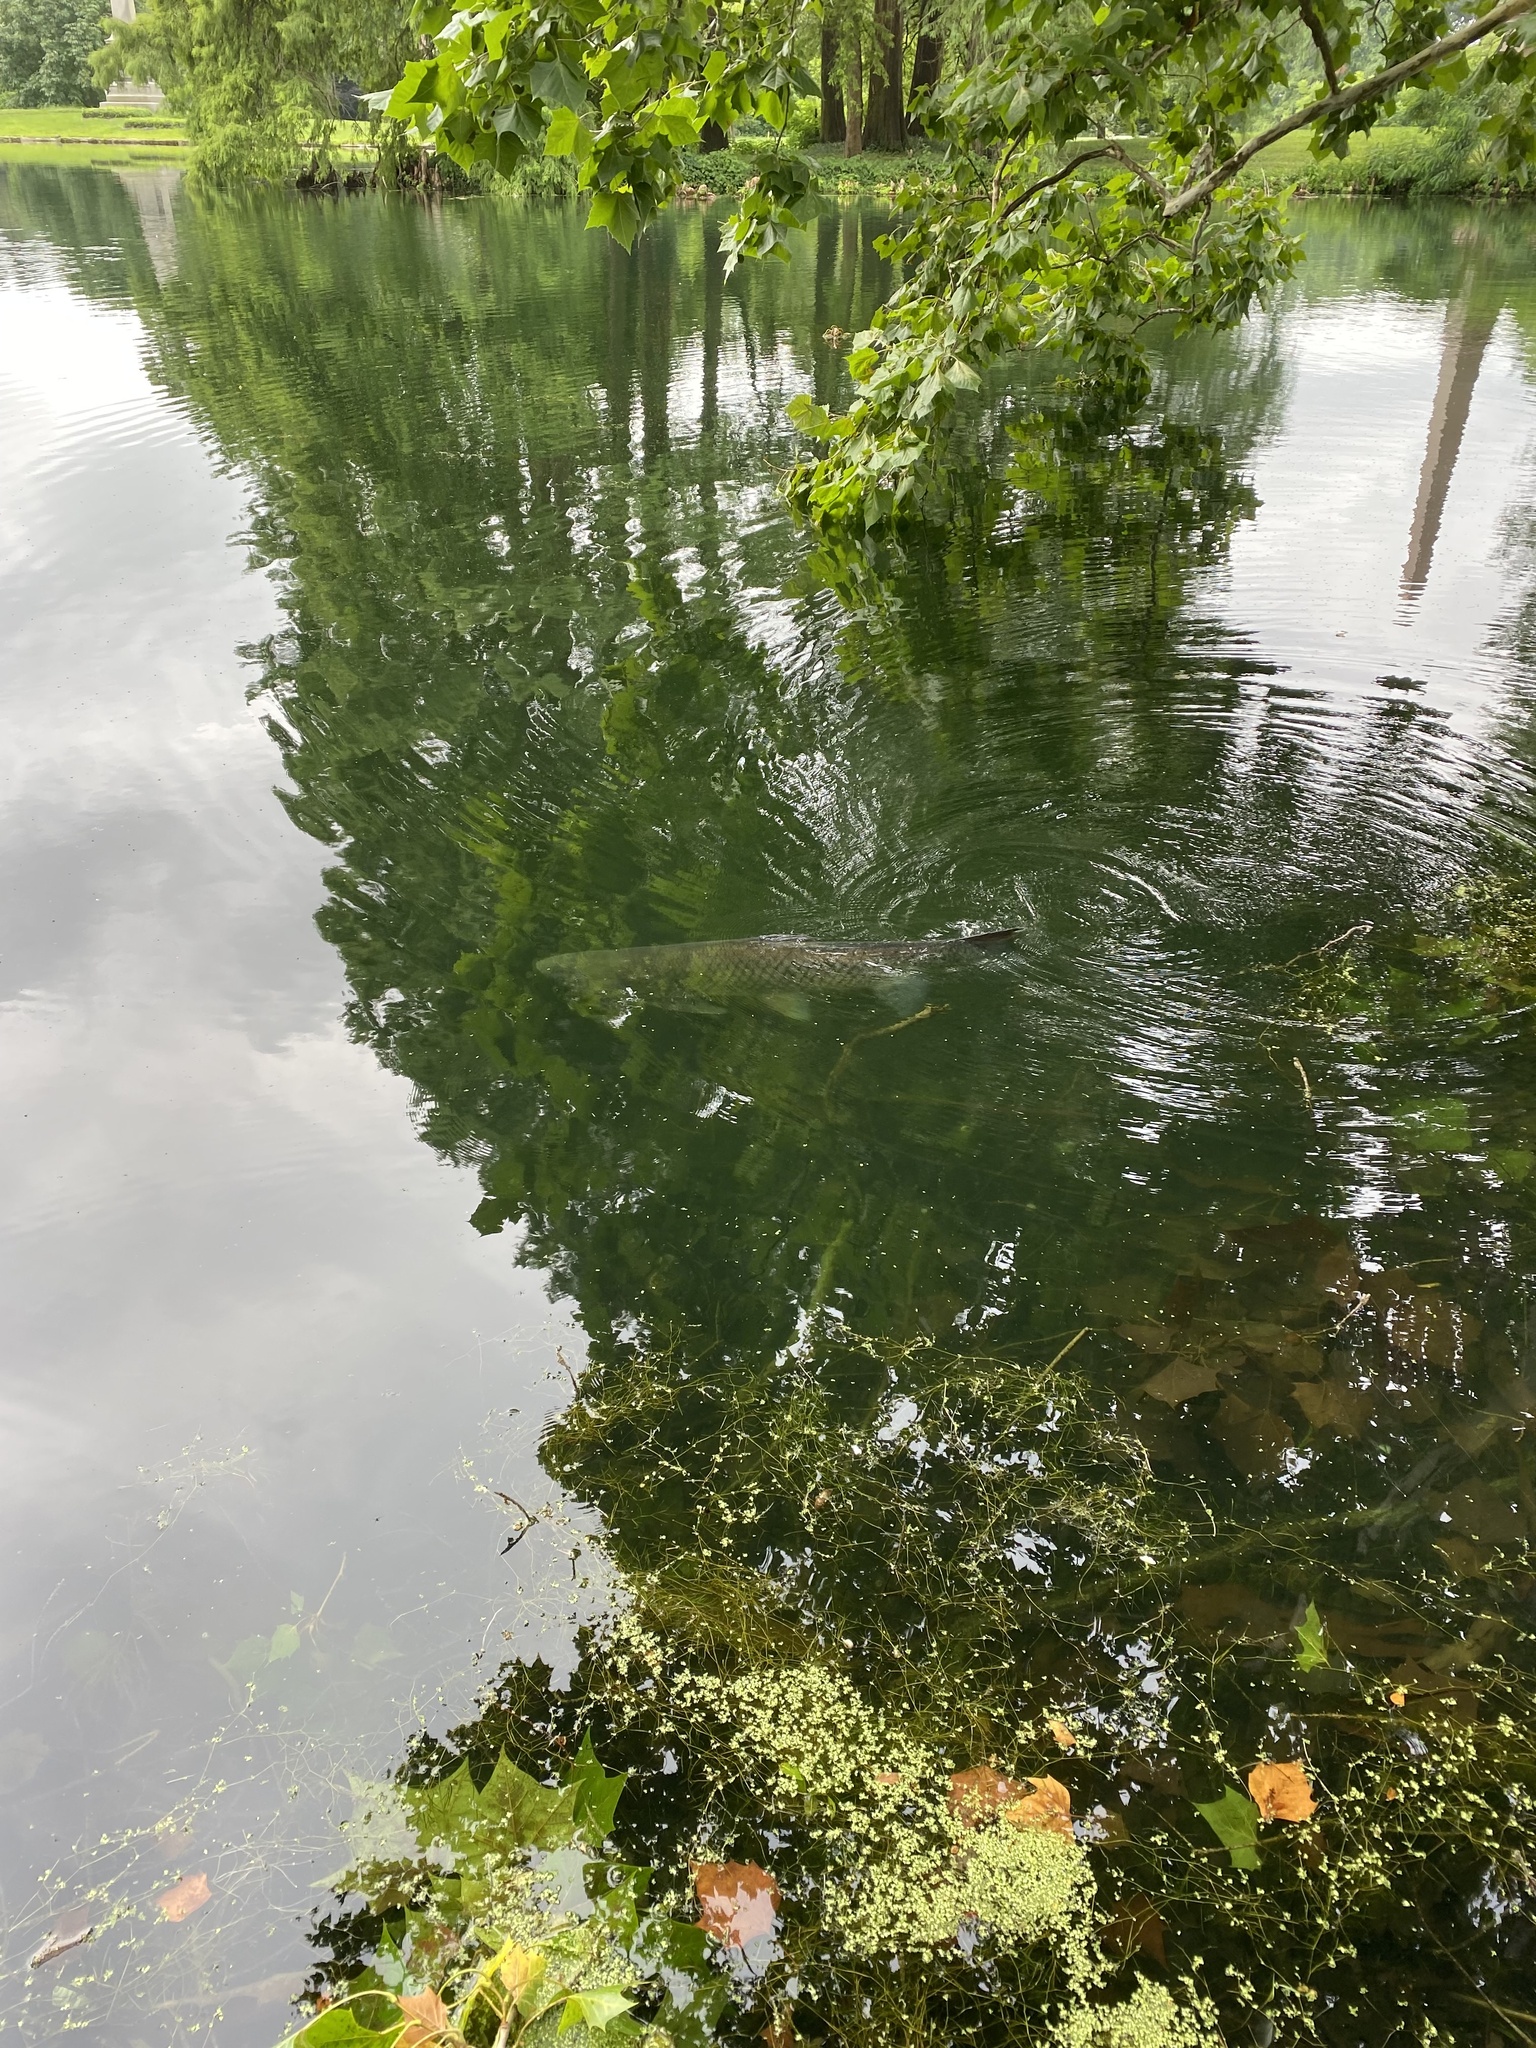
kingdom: Animalia
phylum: Chordata
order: Cypriniformes
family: Cyprinidae
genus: Ctenopharyngodon
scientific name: Ctenopharyngodon idella
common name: Grass carp
